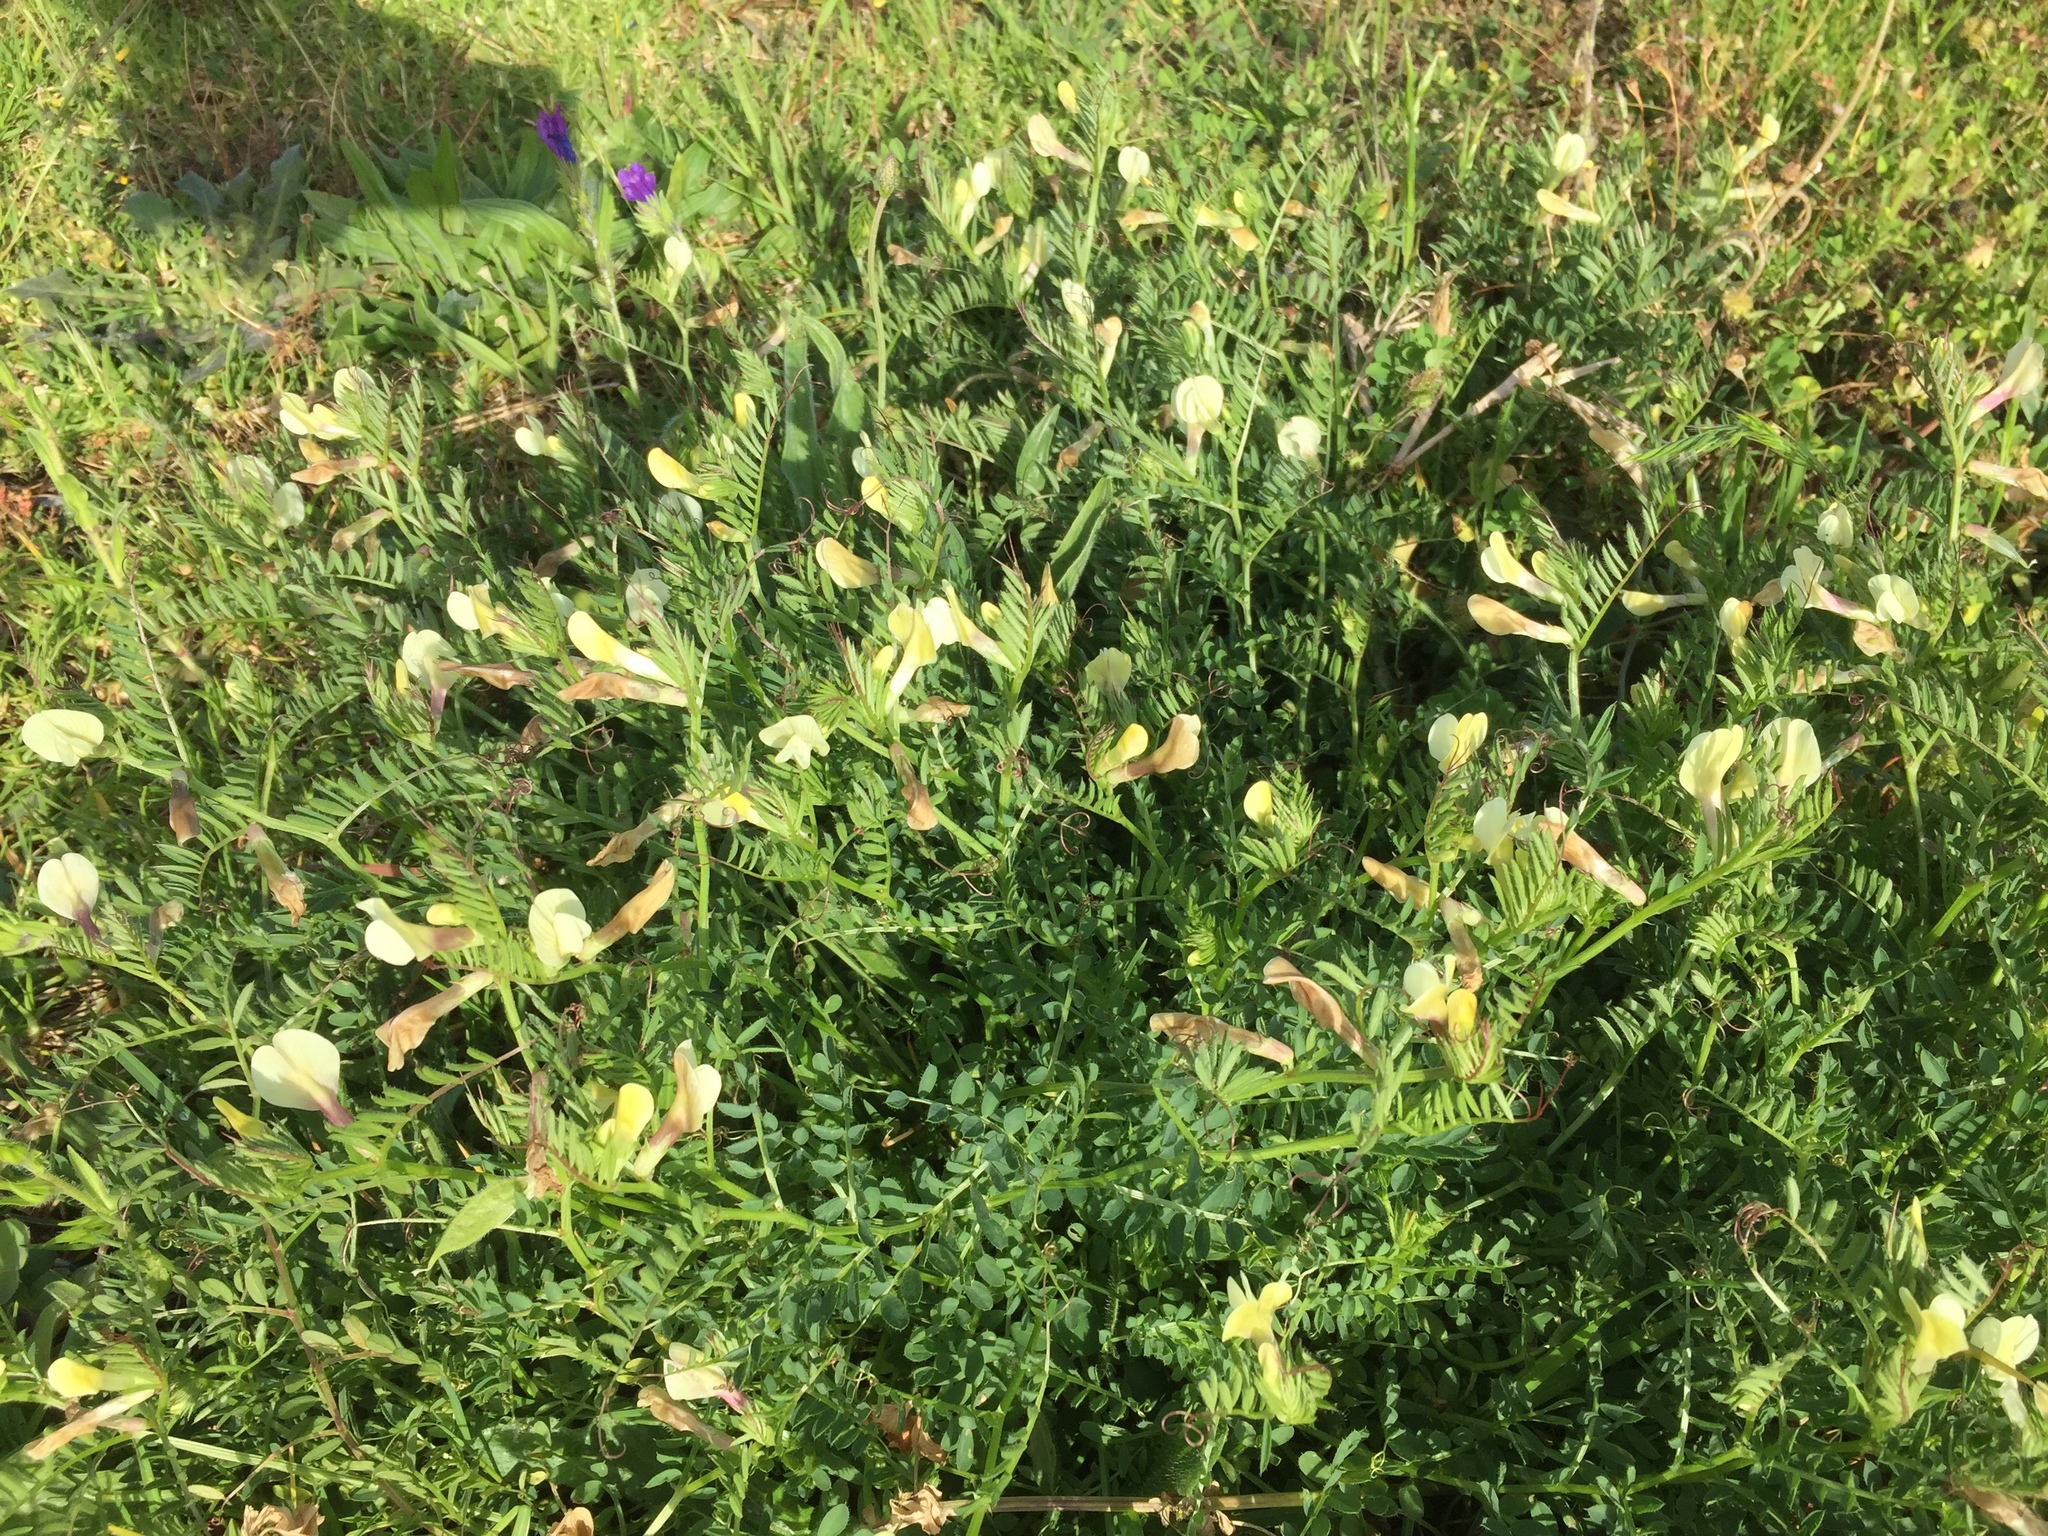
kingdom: Plantae
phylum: Tracheophyta
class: Magnoliopsida
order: Fabales
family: Fabaceae
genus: Vicia
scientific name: Vicia lutea
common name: Smooth yellow vetch
